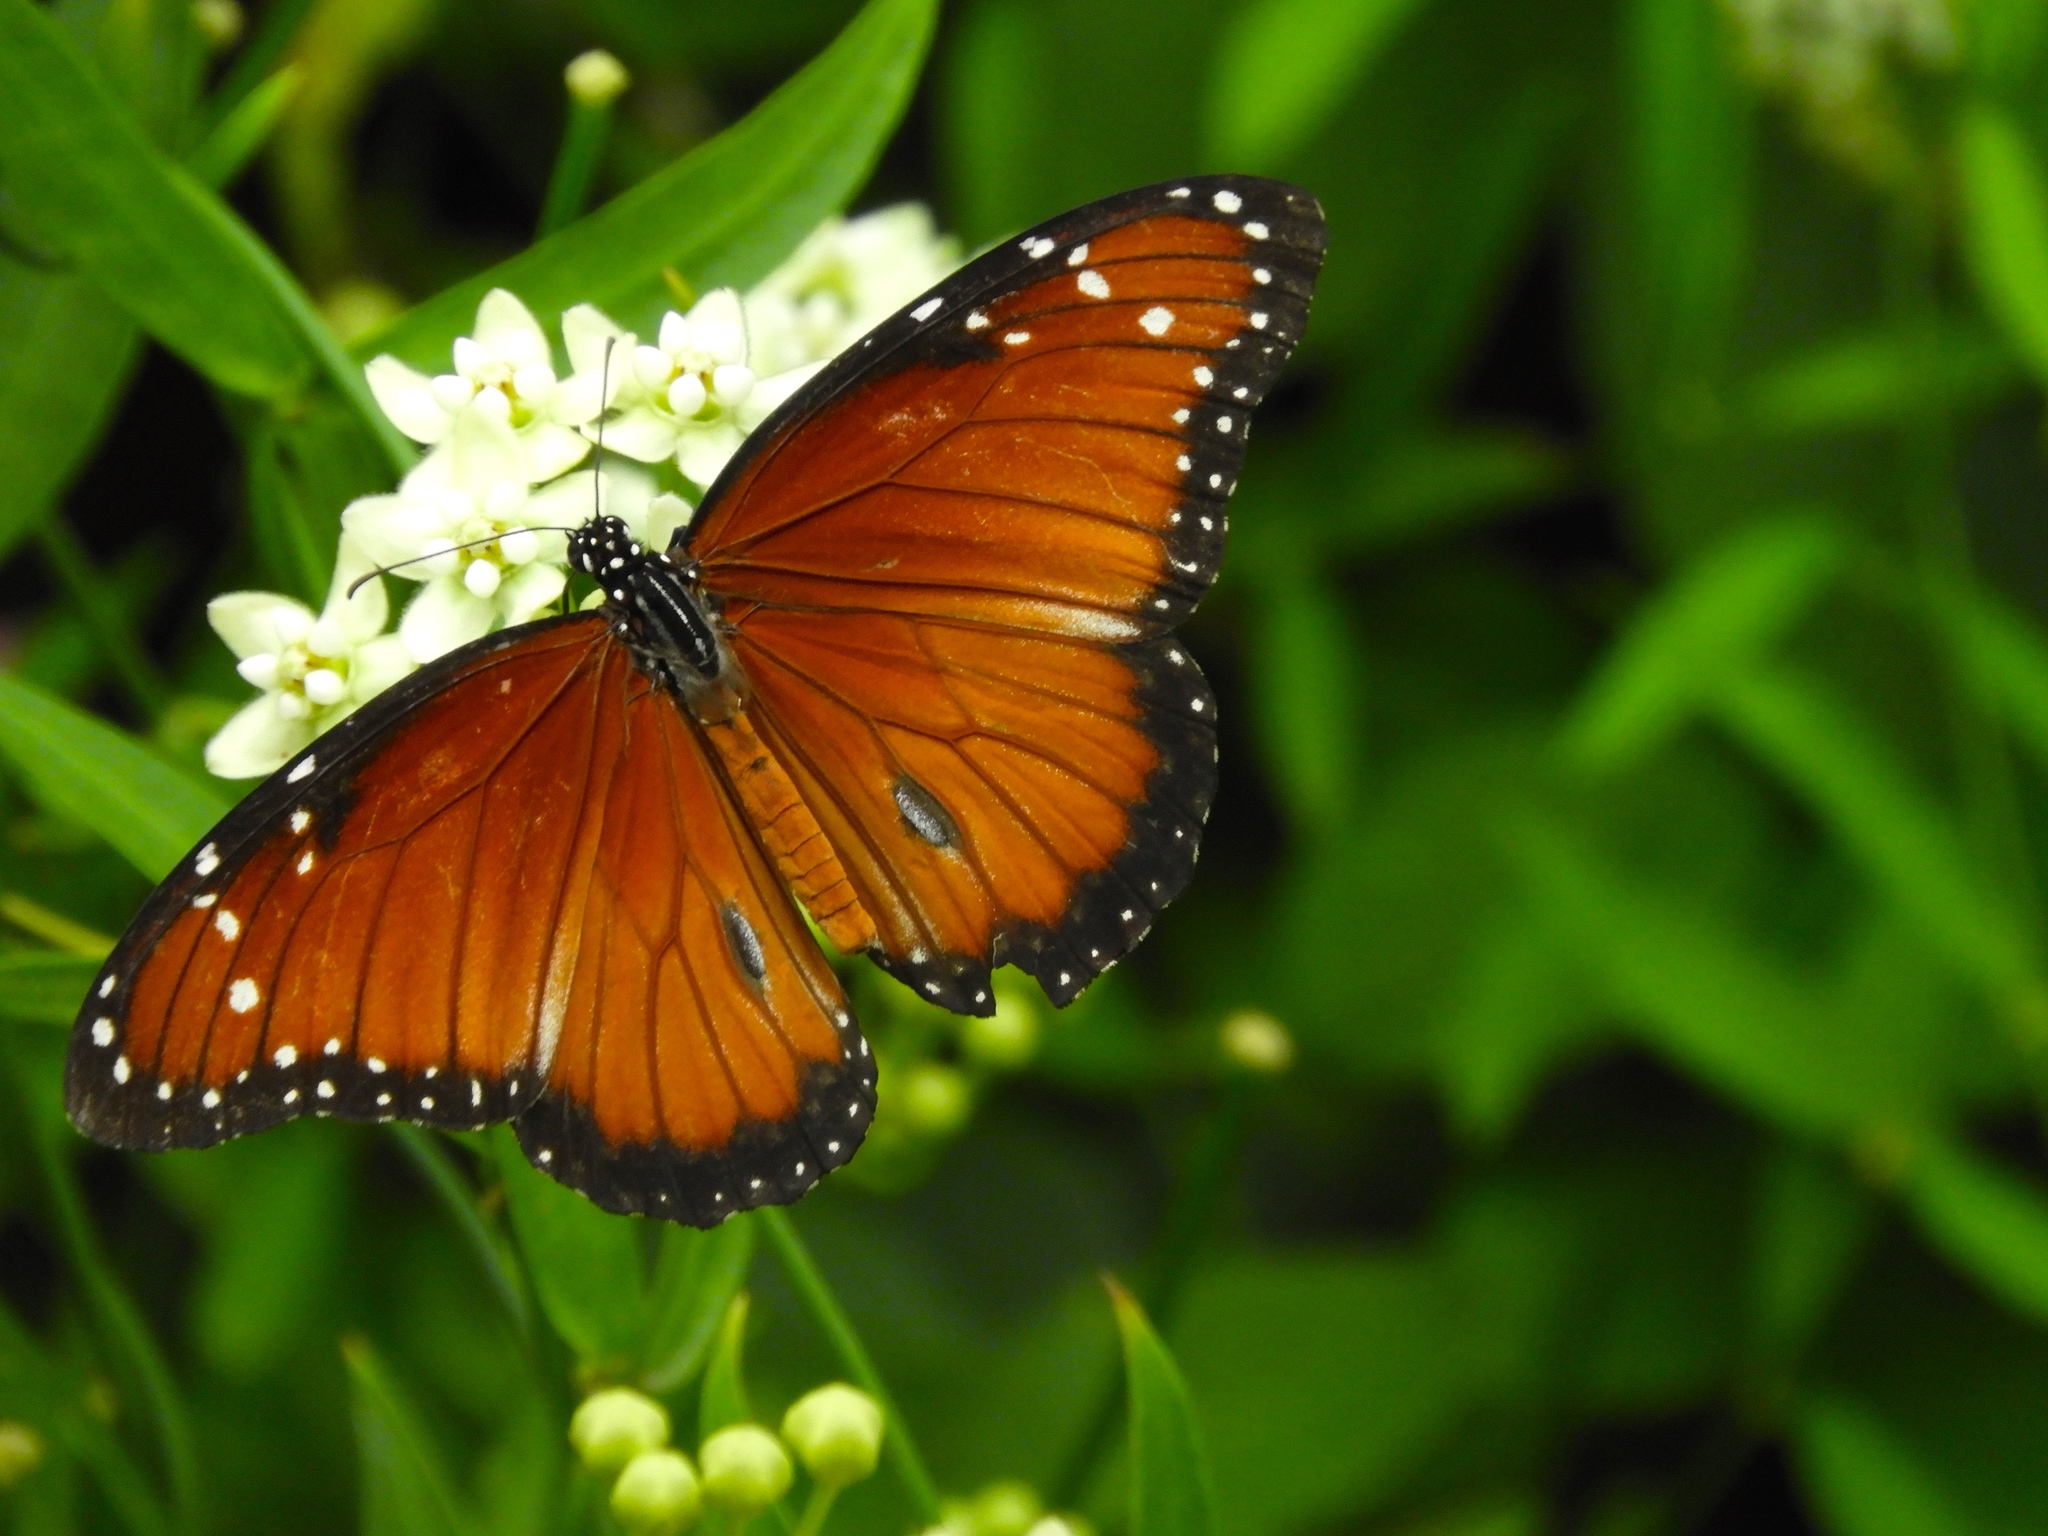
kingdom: Animalia
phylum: Arthropoda
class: Insecta
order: Lepidoptera
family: Nymphalidae
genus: Danaus
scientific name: Danaus eresimus
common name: Soldier
